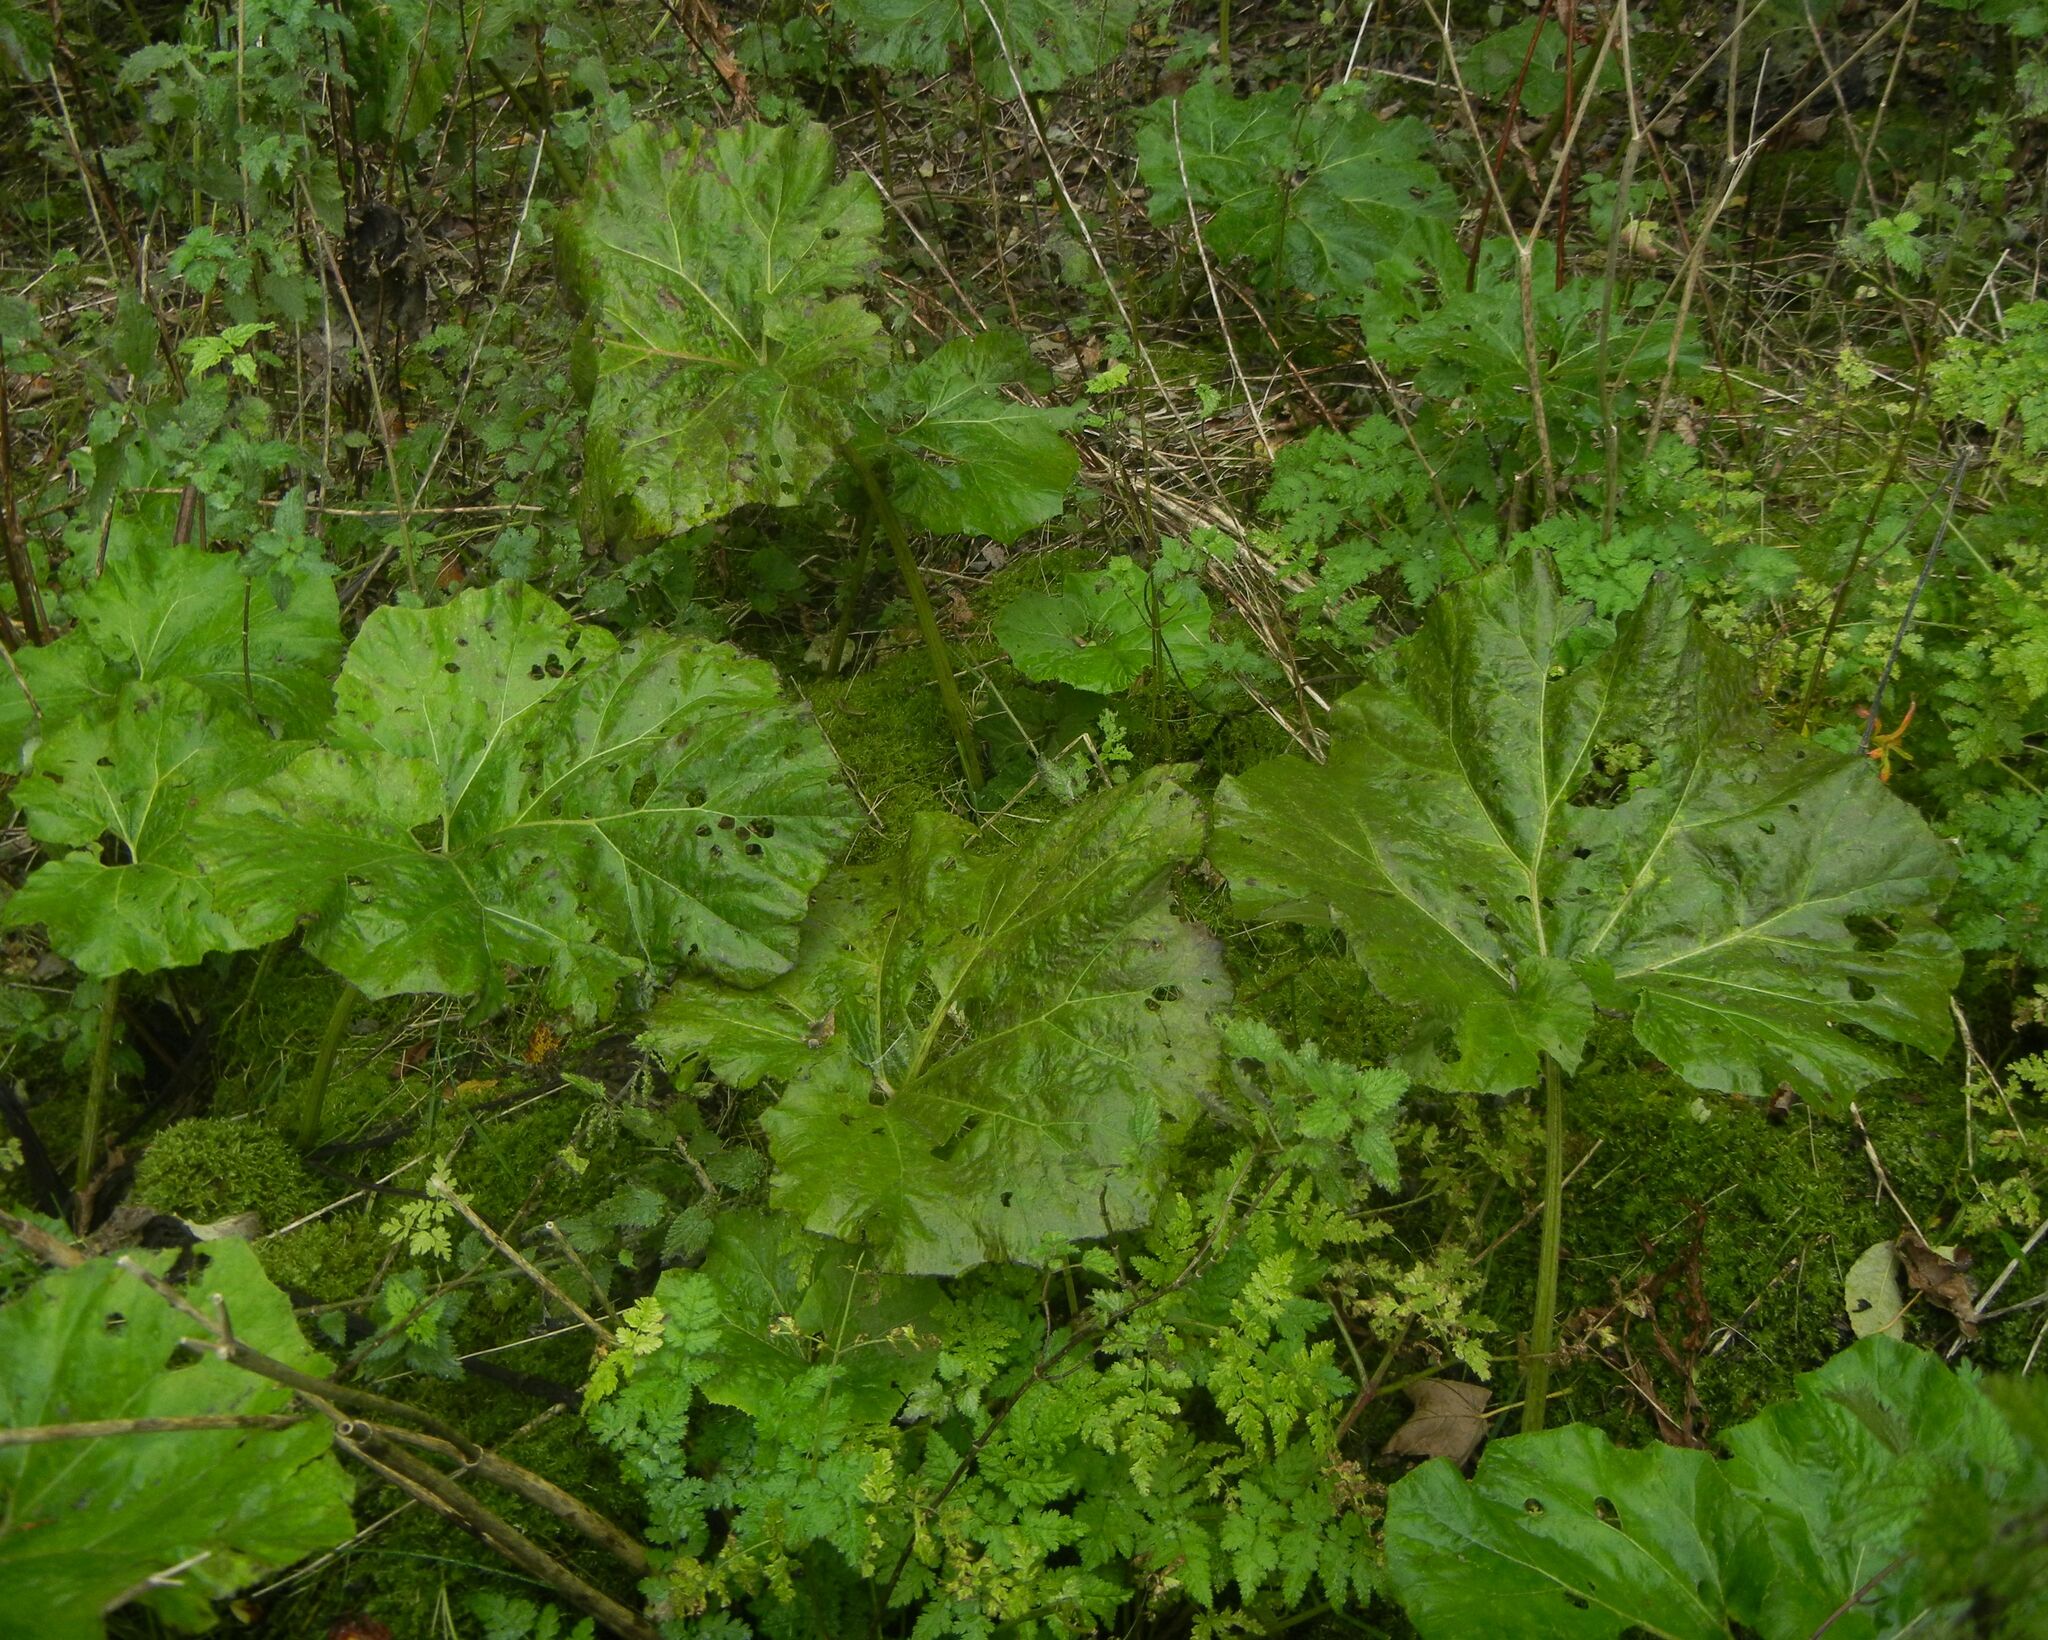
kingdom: Plantae
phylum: Tracheophyta
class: Magnoliopsida
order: Asterales
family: Asteraceae
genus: Petasites
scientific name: Petasites hybridus
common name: Butterbur
